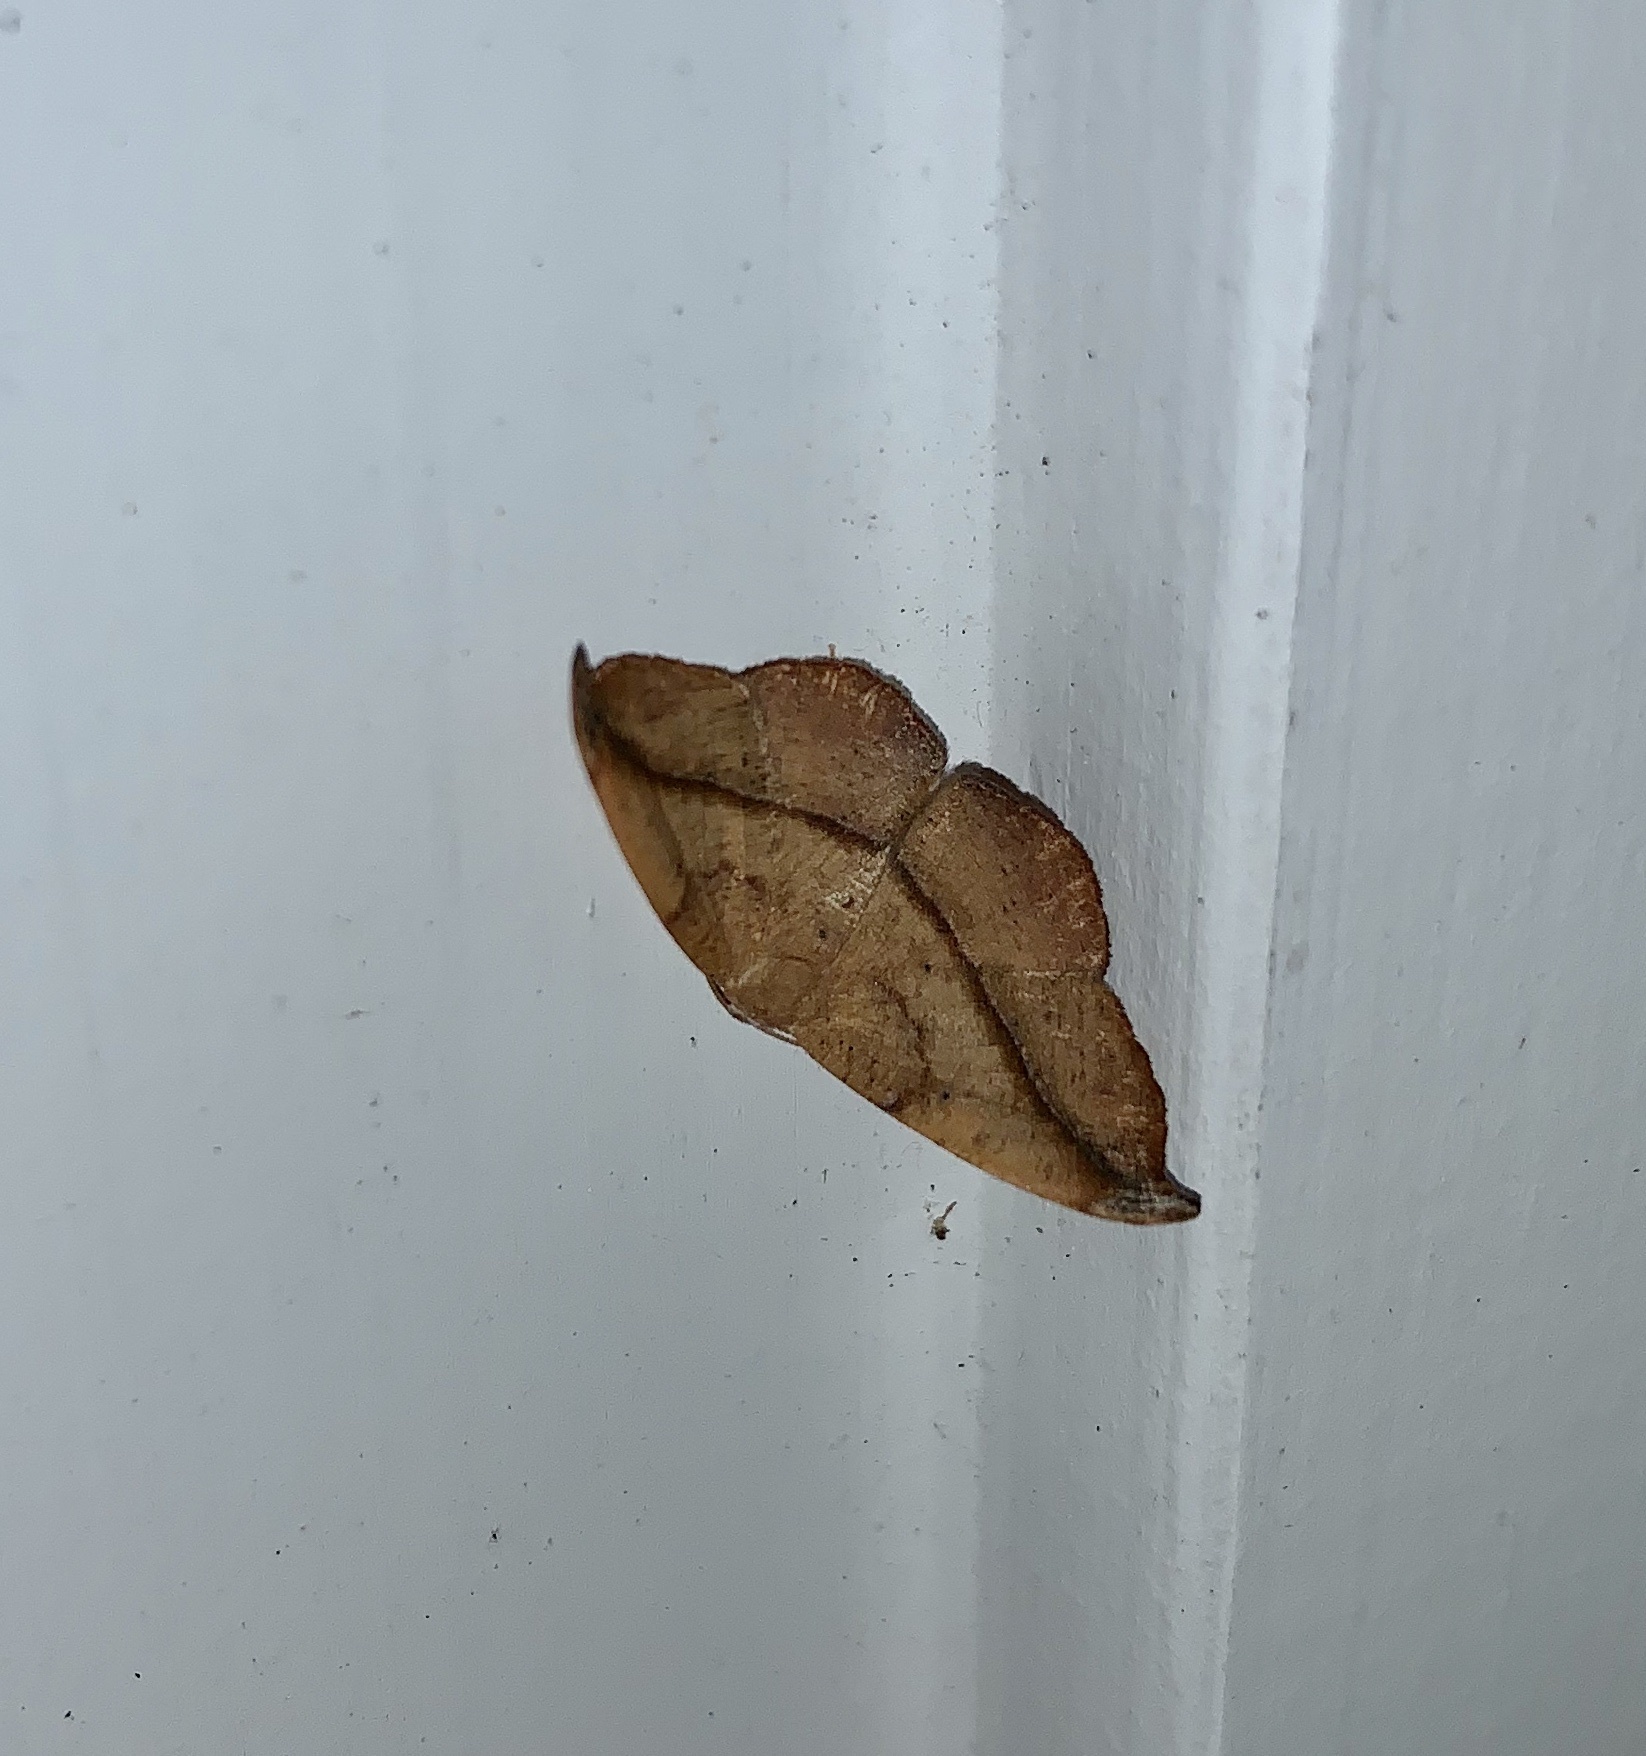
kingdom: Animalia
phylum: Arthropoda
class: Insecta
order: Lepidoptera
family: Geometridae
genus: Patalene
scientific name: Patalene olyzonaria
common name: Juniper geometer moth
